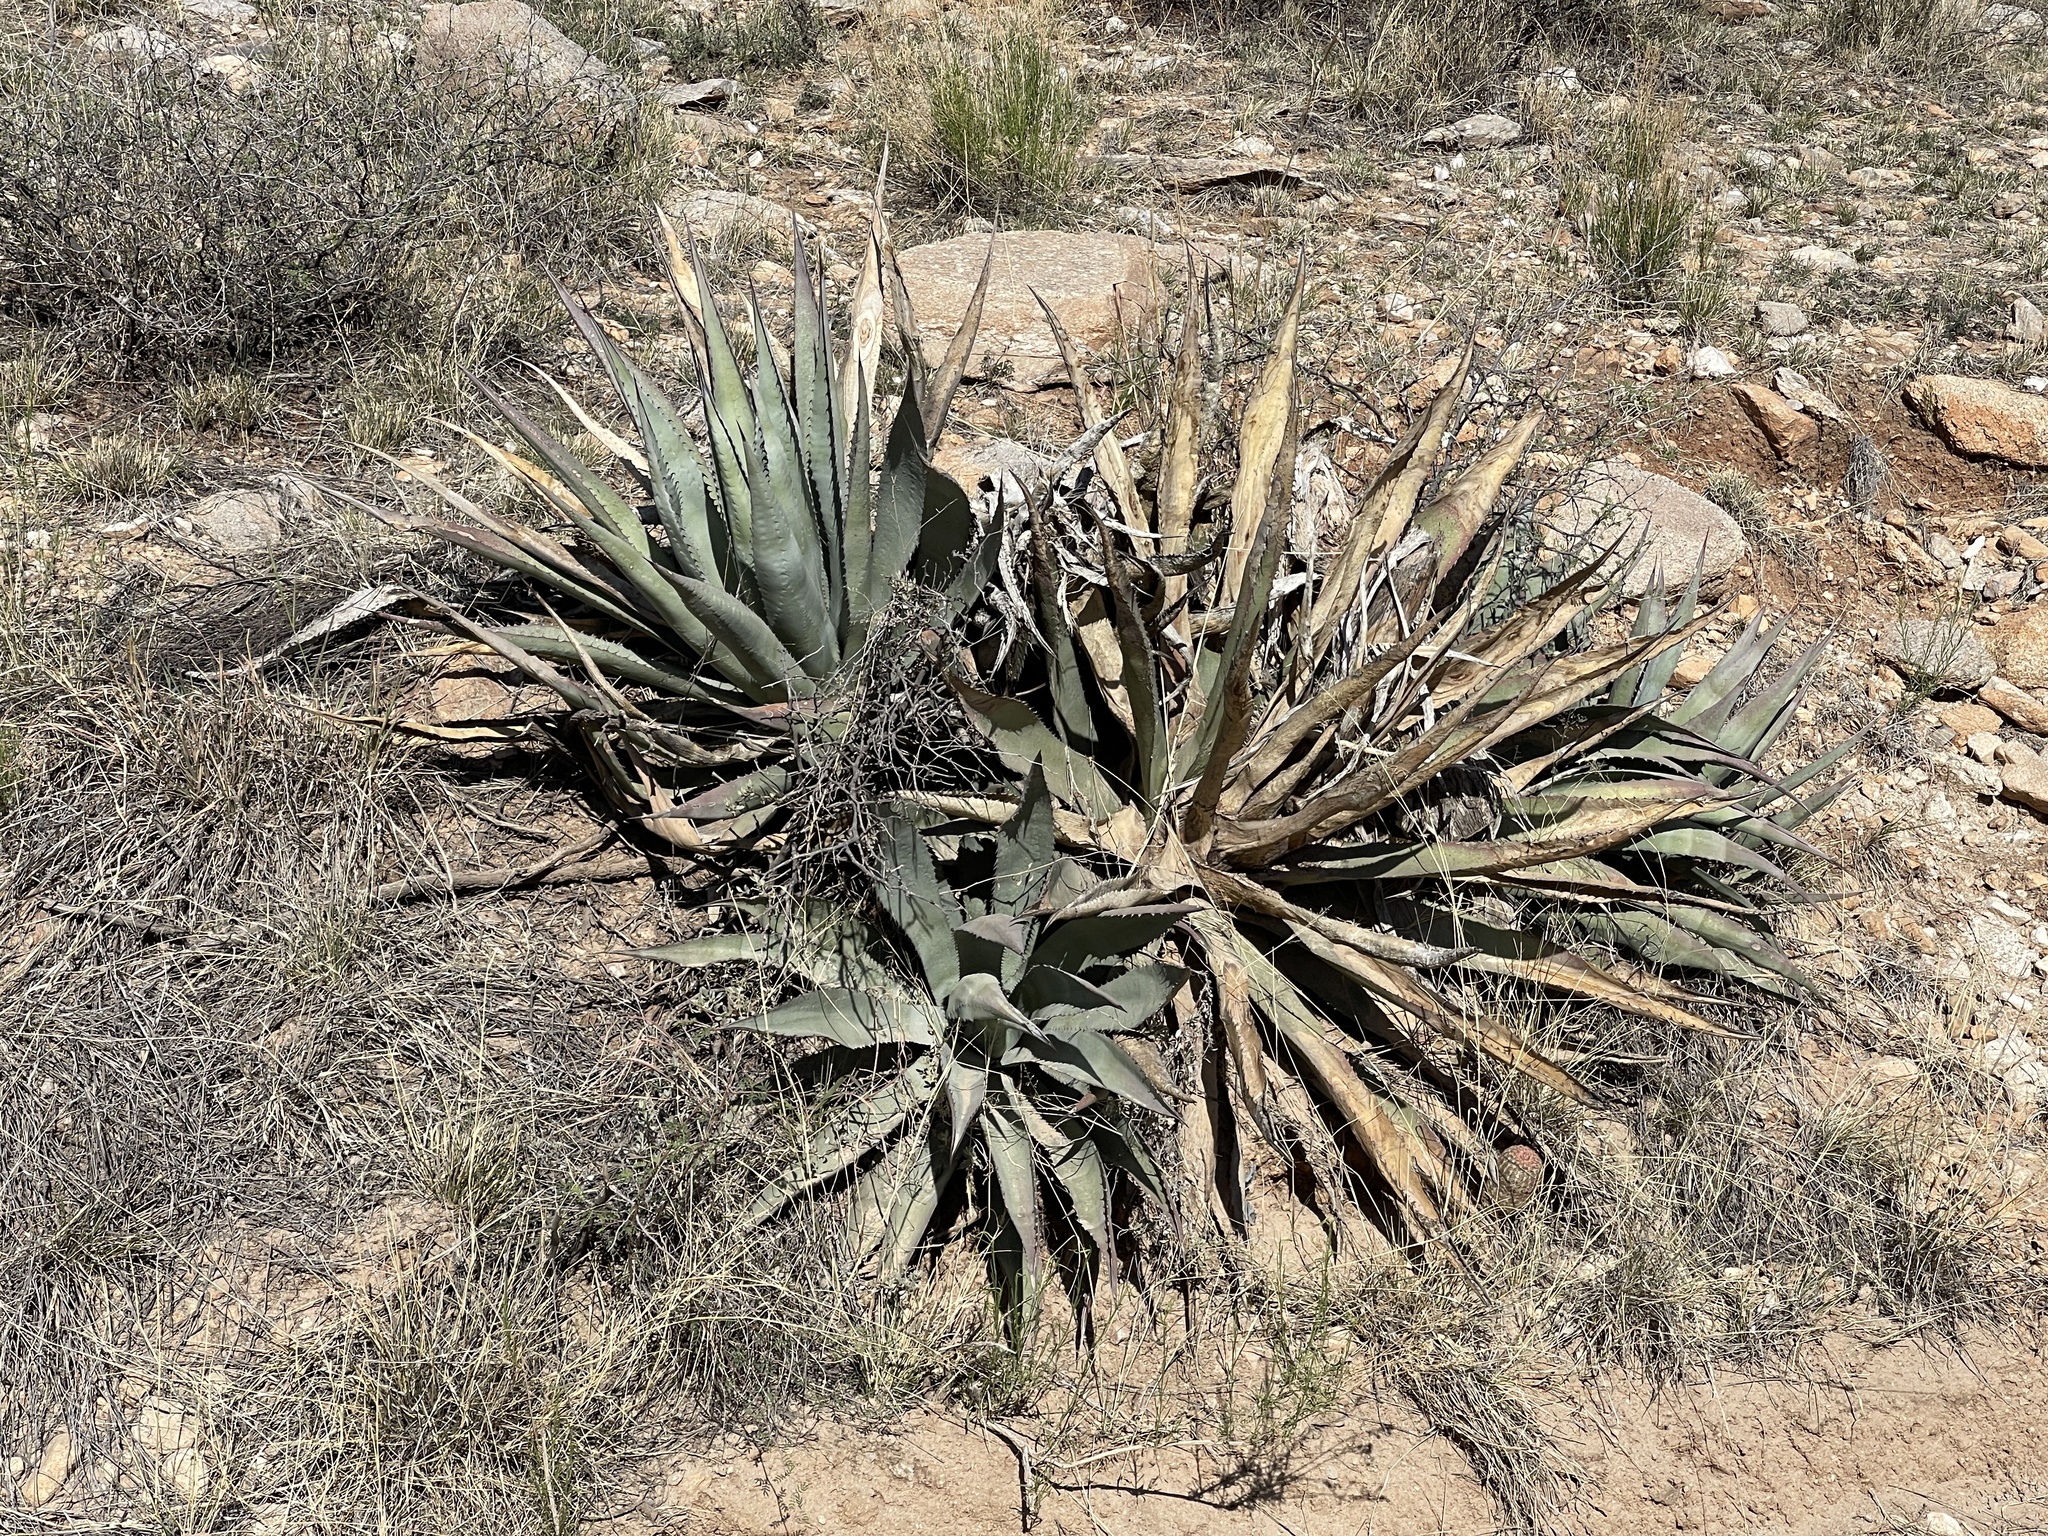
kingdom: Plantae
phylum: Tracheophyta
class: Liliopsida
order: Asparagales
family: Asparagaceae
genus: Agave
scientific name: Agave palmeri
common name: Palmer agave
